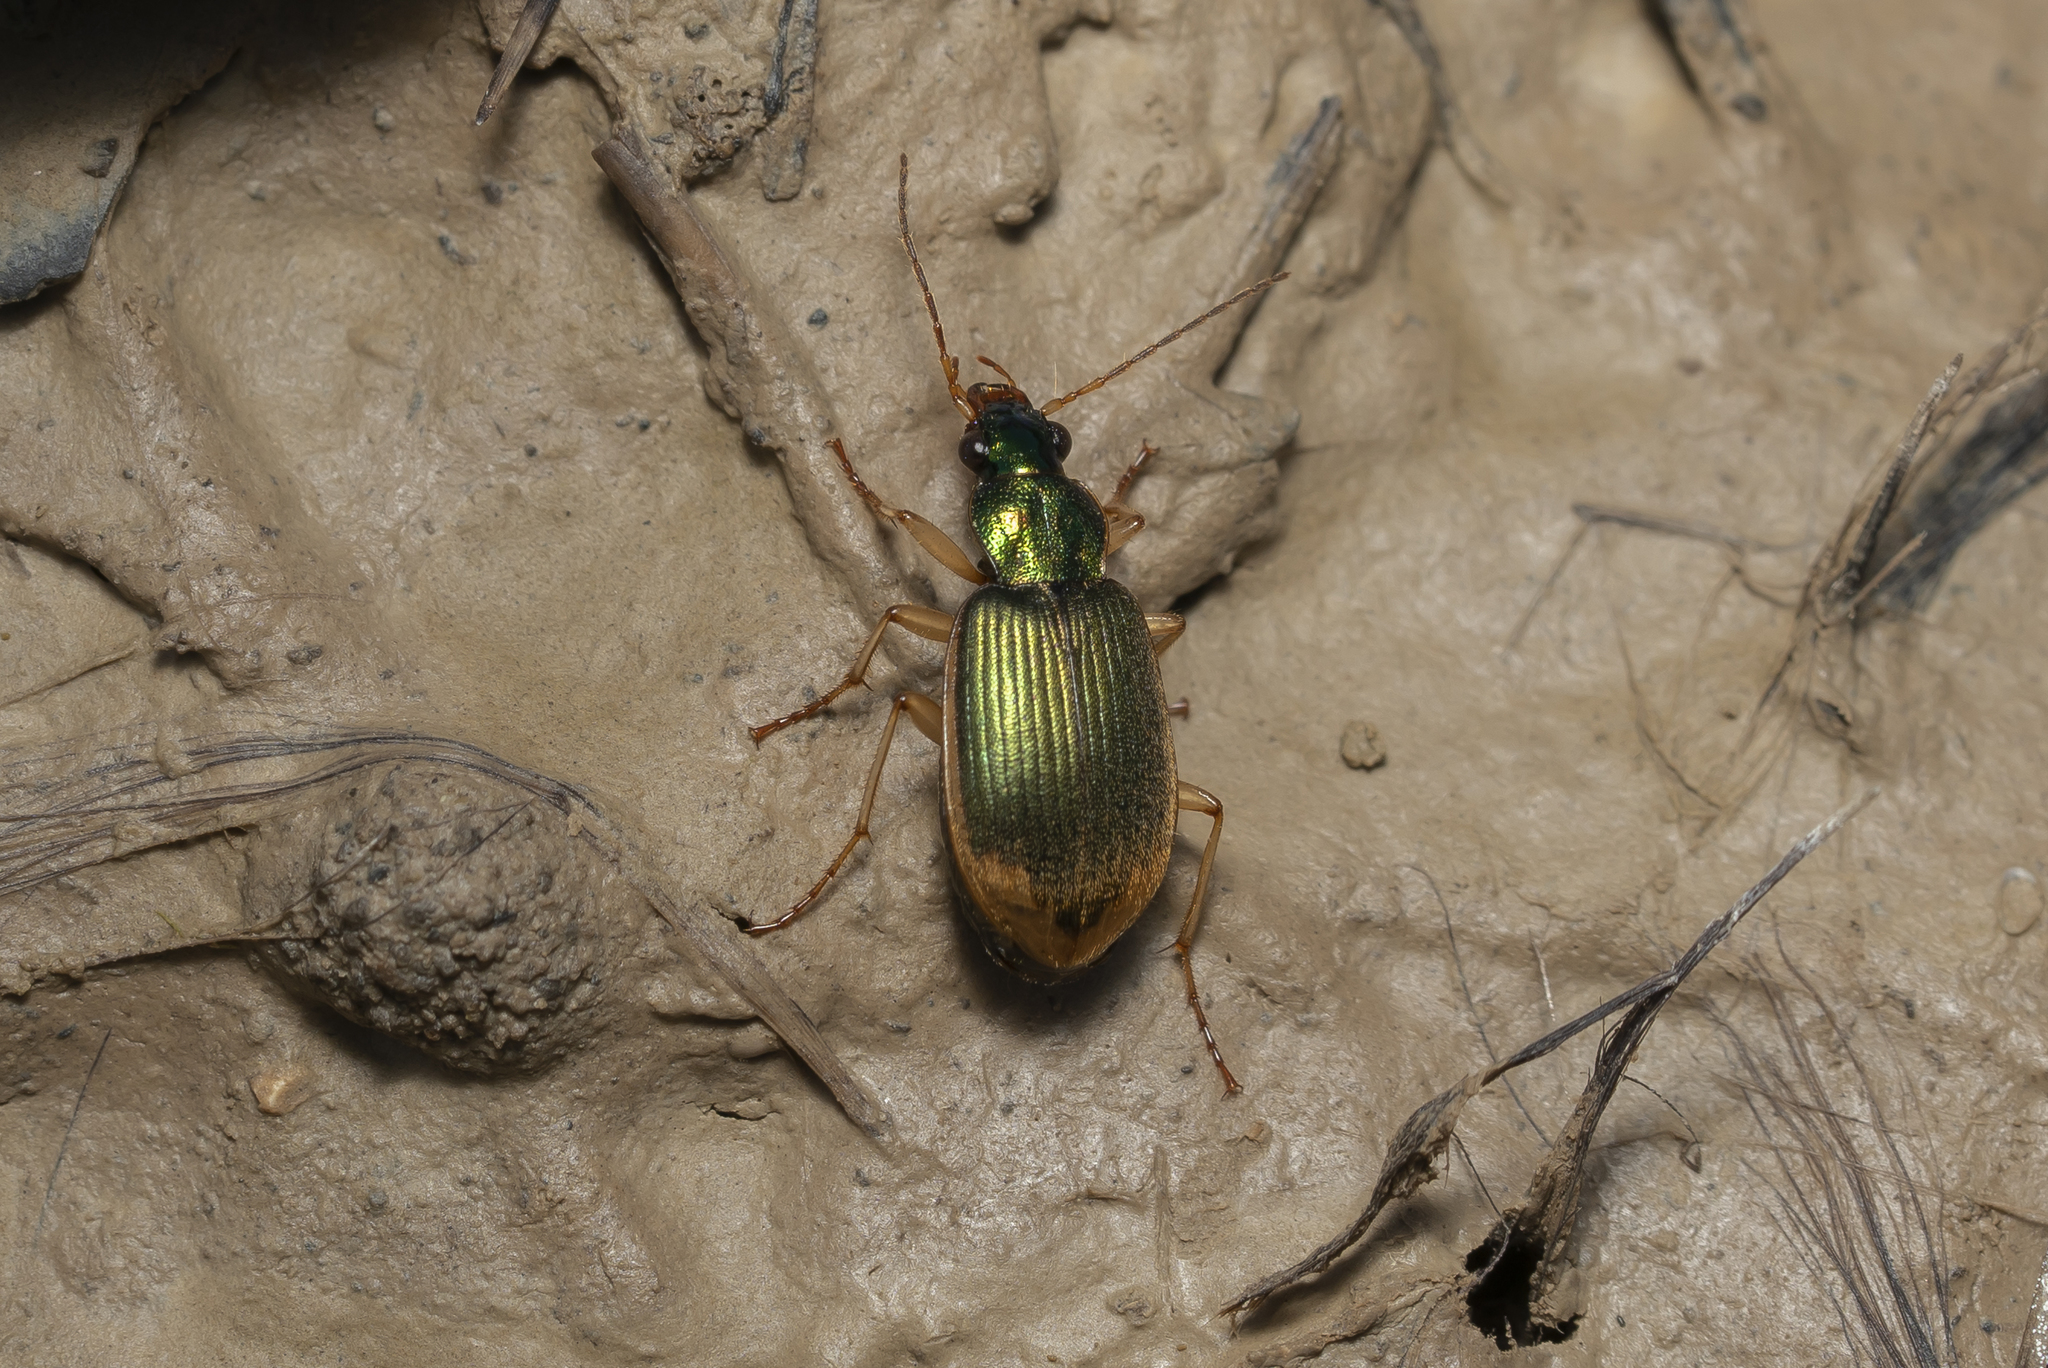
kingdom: Animalia
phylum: Arthropoda
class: Insecta
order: Coleoptera
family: Carabidae
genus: Chlaenius
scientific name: Chlaenius vestitus
